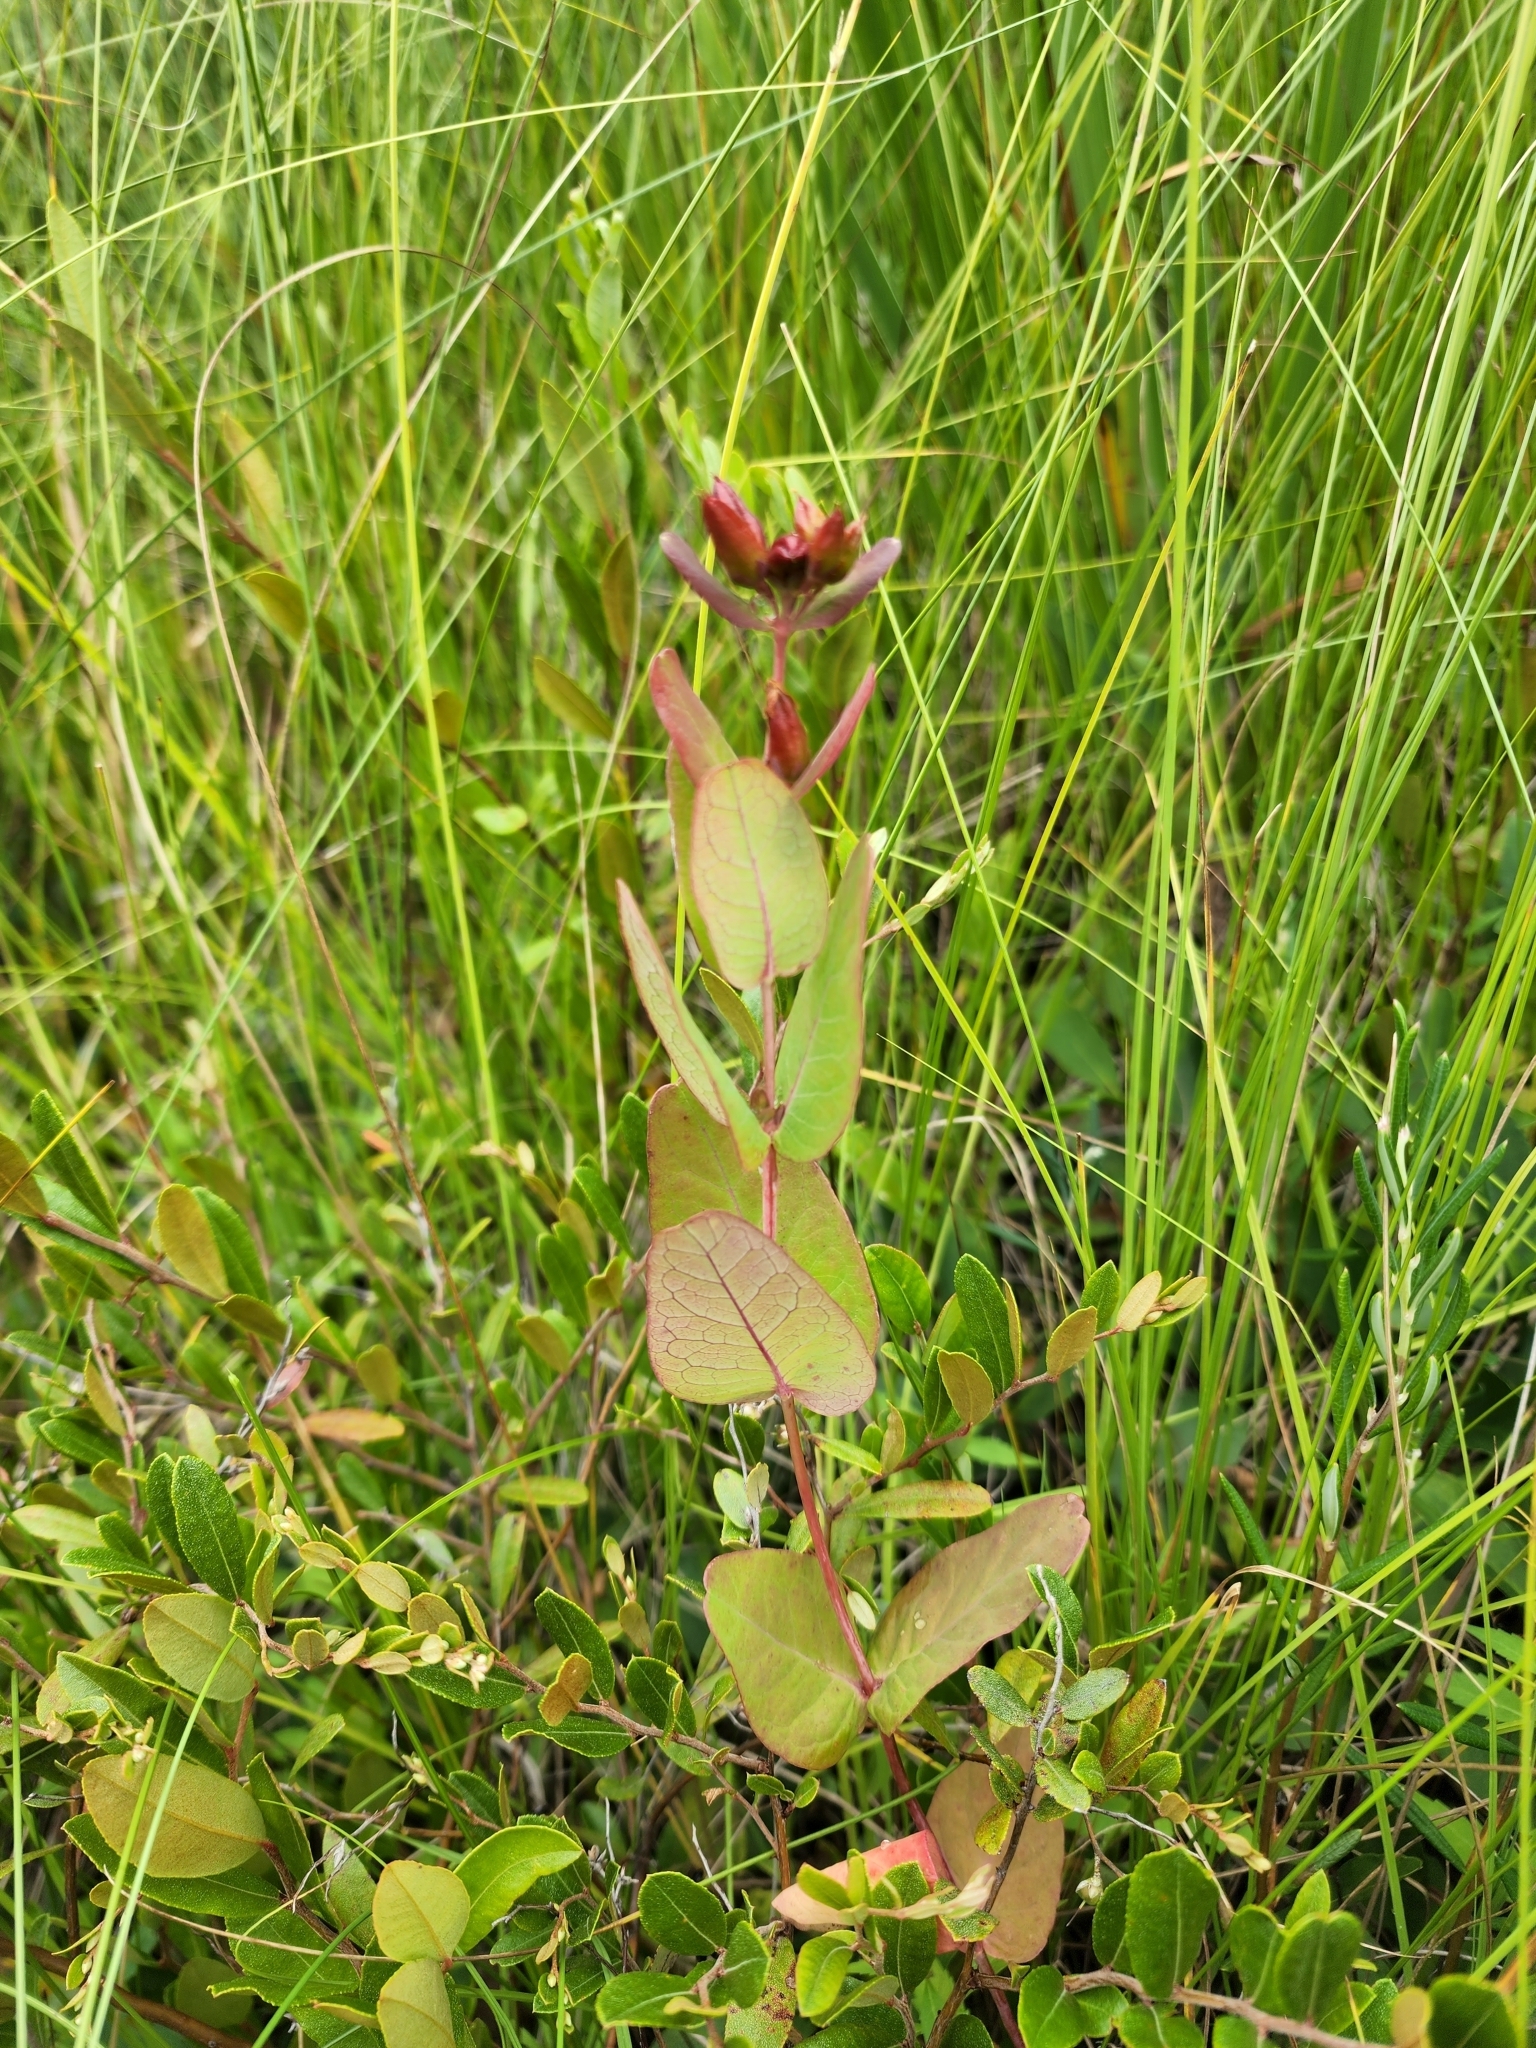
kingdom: Plantae
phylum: Tracheophyta
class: Magnoliopsida
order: Malpighiales
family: Hypericaceae
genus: Triadenum
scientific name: Triadenum fraseri
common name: Fraser's marsh st. johnswort
